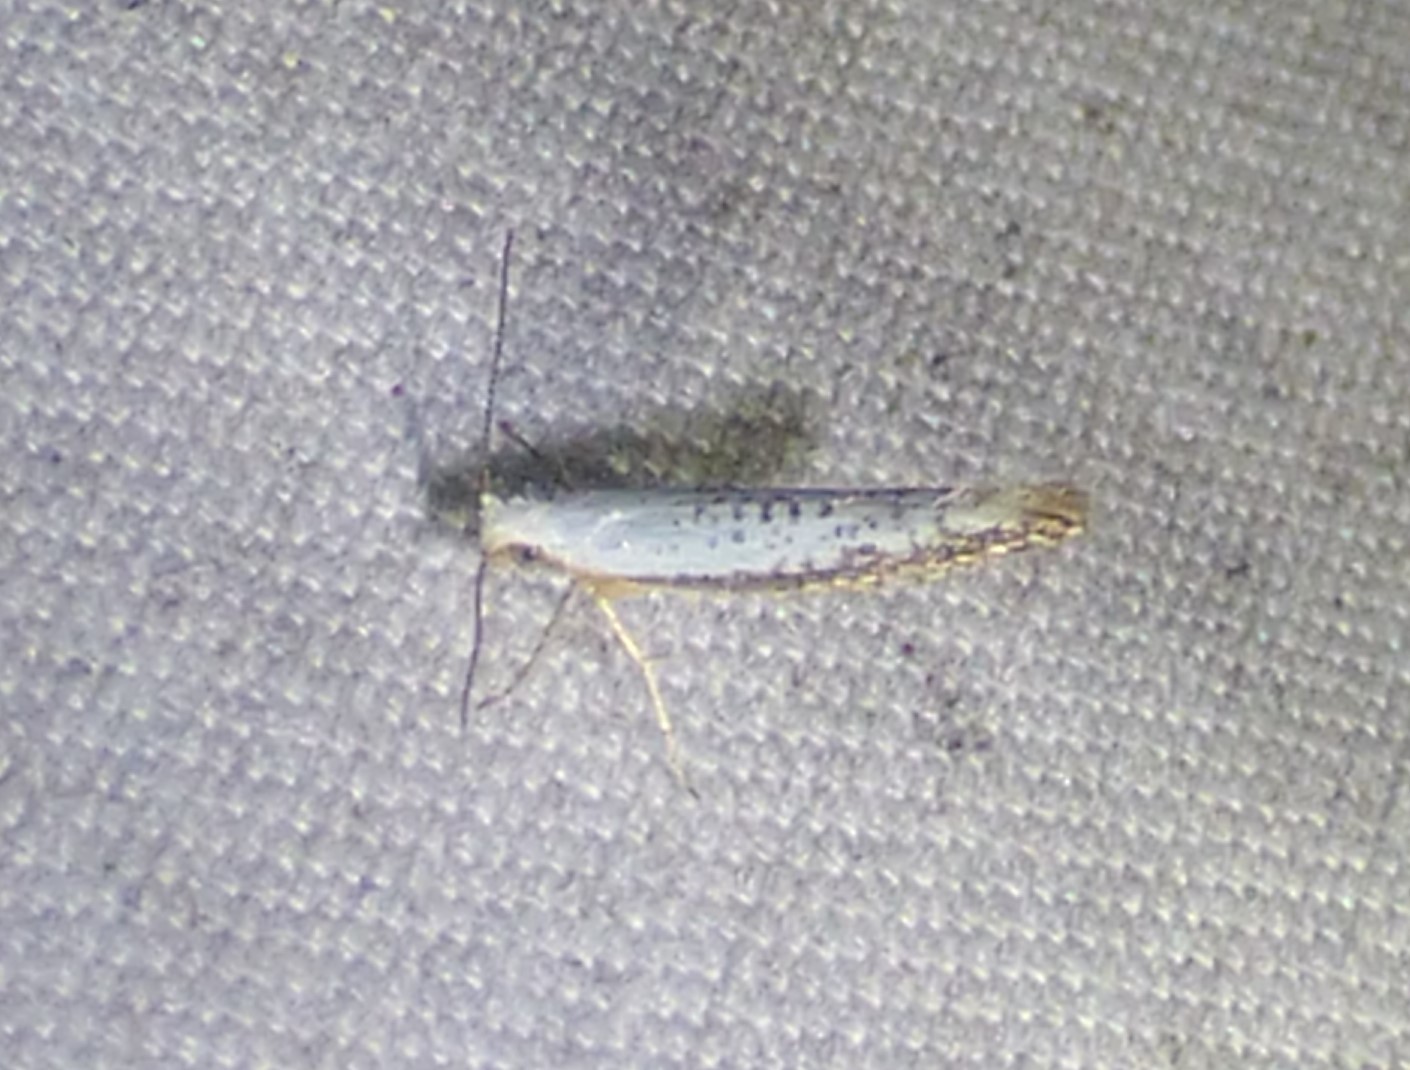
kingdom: Animalia
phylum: Arthropoda
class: Insecta
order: Lepidoptera
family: Argyresthiidae
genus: Argyresthia
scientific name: Argyresthia subreticulata
